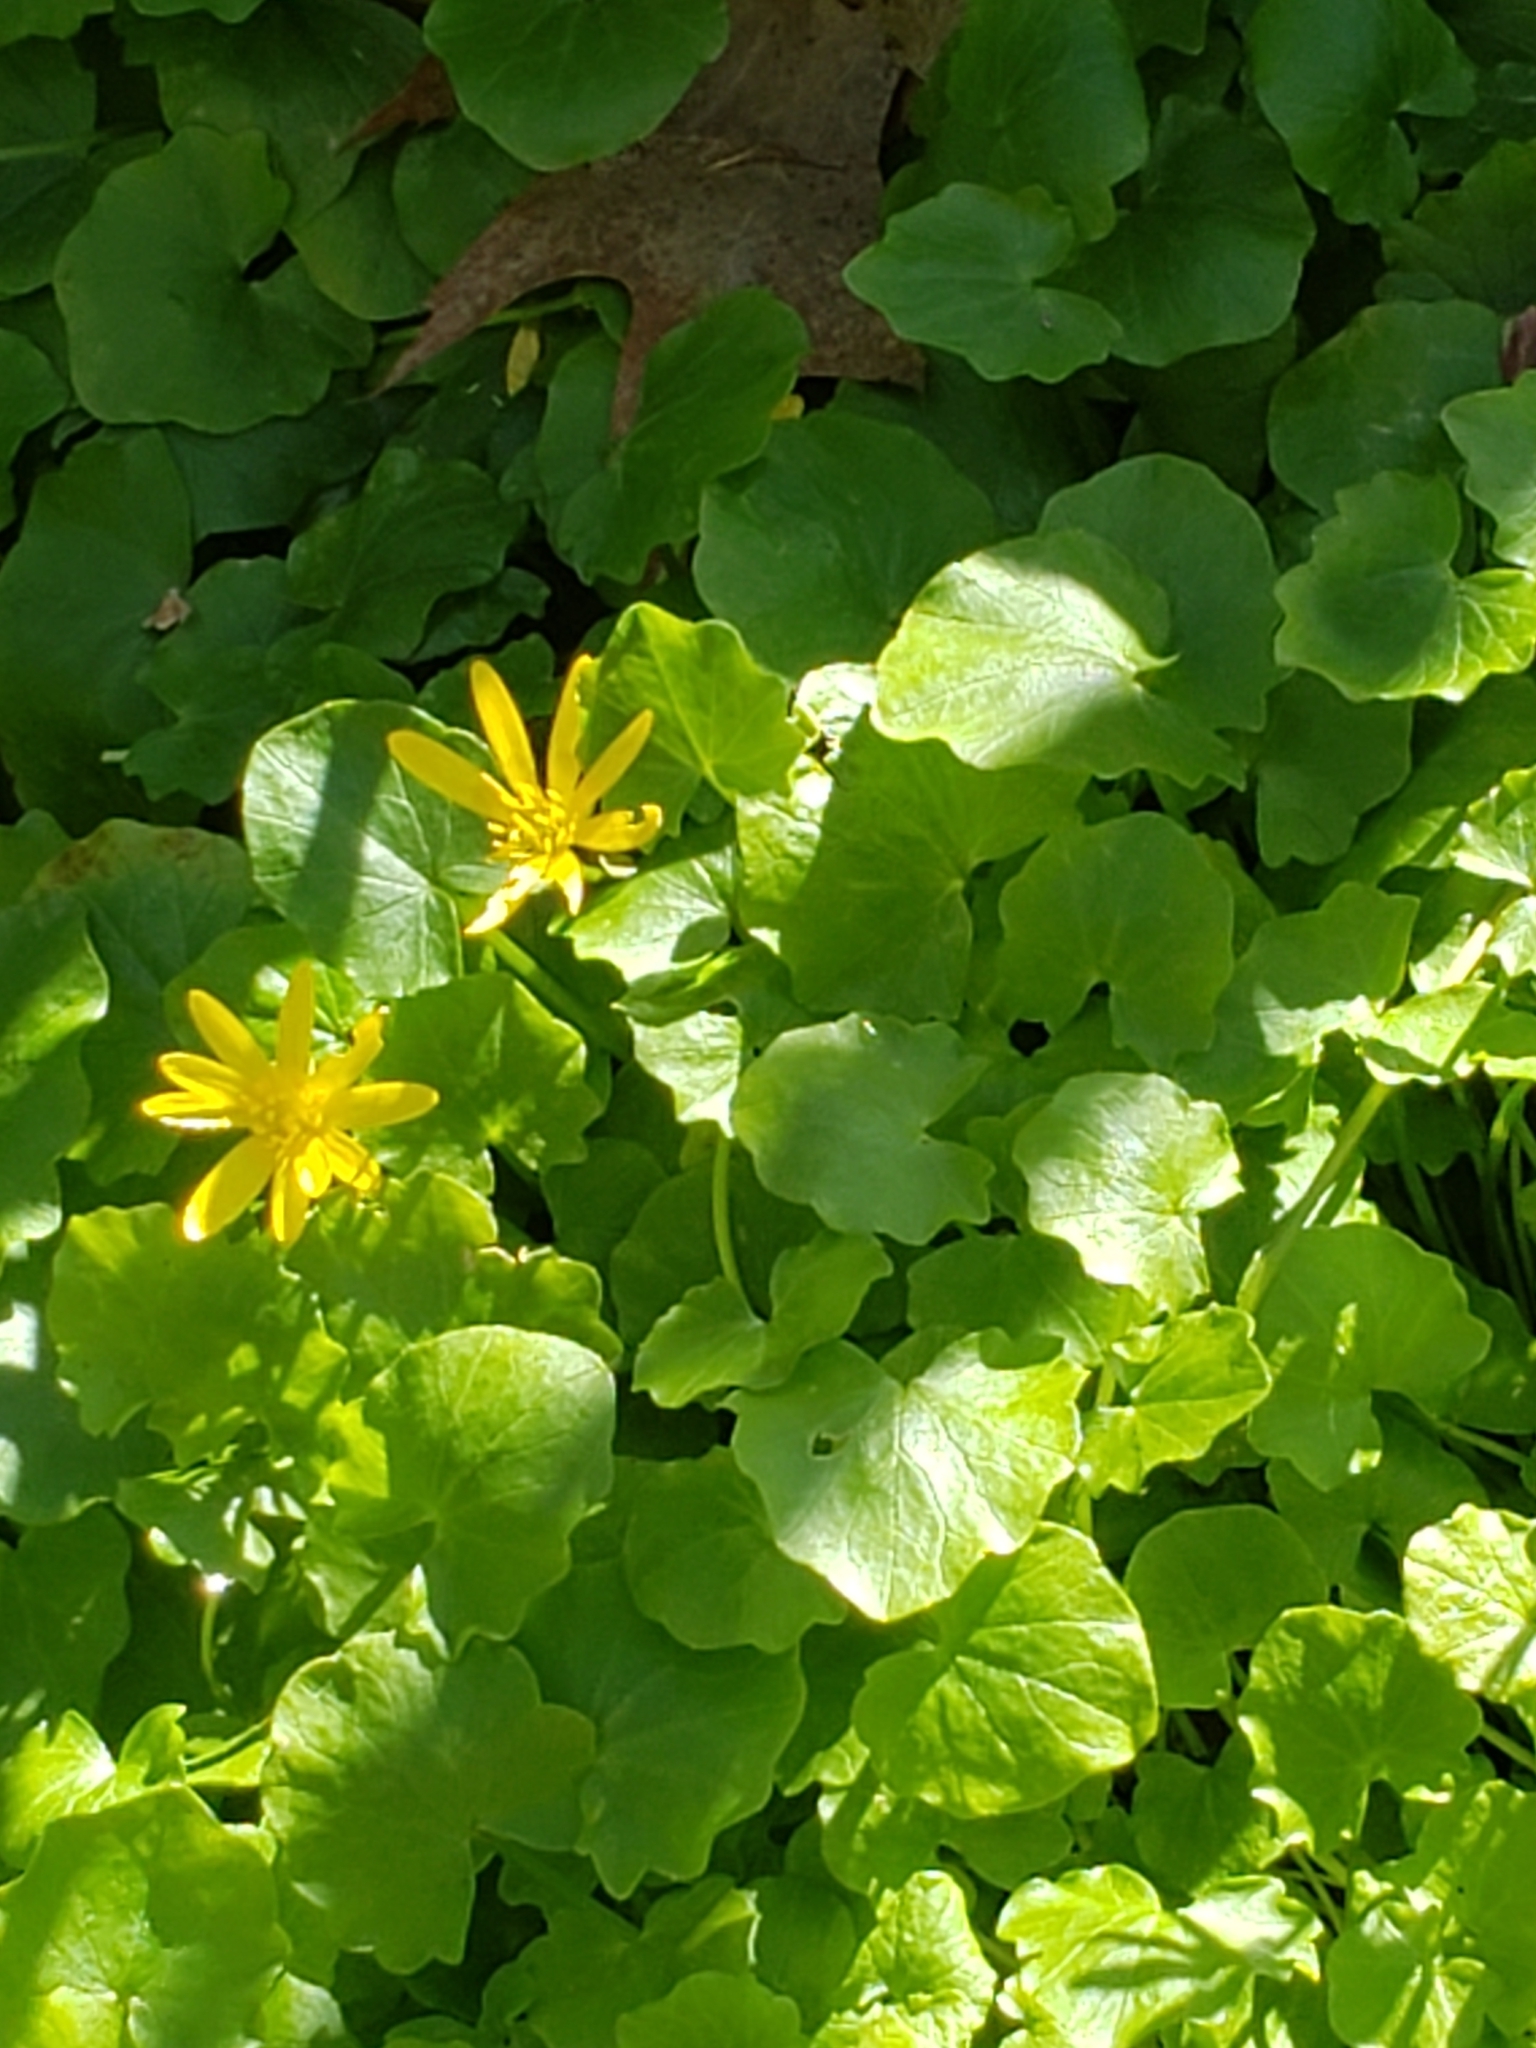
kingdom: Plantae
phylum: Tracheophyta
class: Magnoliopsida
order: Ranunculales
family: Ranunculaceae
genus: Ficaria
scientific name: Ficaria verna
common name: Lesser celandine
